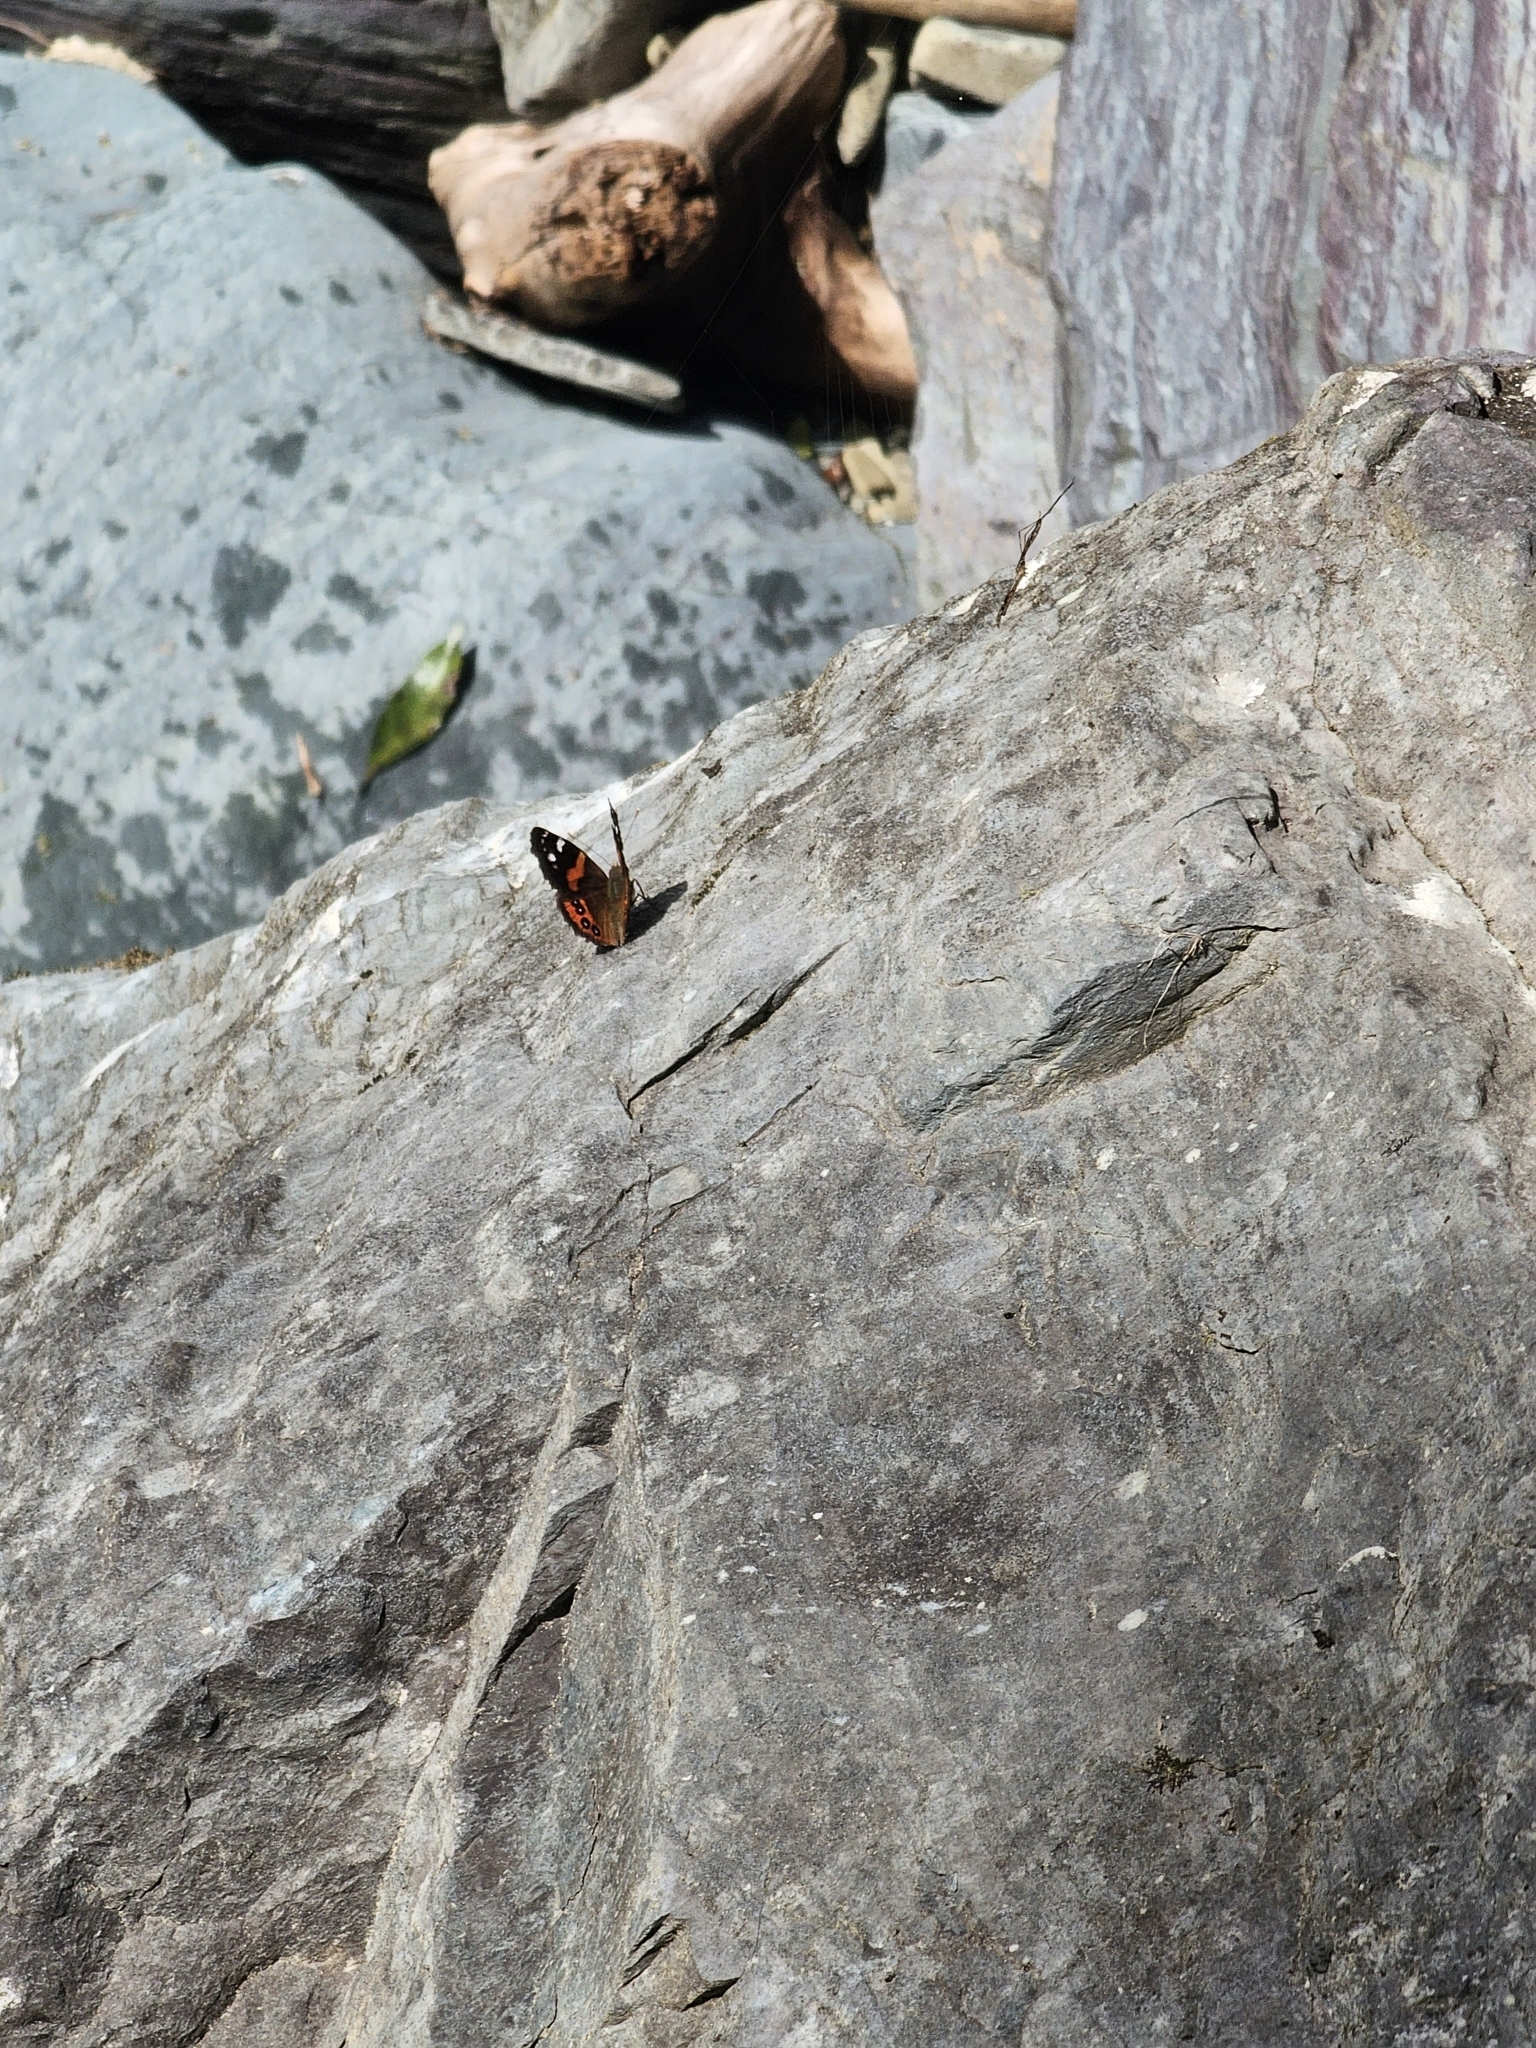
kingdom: Animalia
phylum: Arthropoda
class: Insecta
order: Lepidoptera
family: Nymphalidae
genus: Vanessa
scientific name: Vanessa gonerilla
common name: New zealand red admiral
